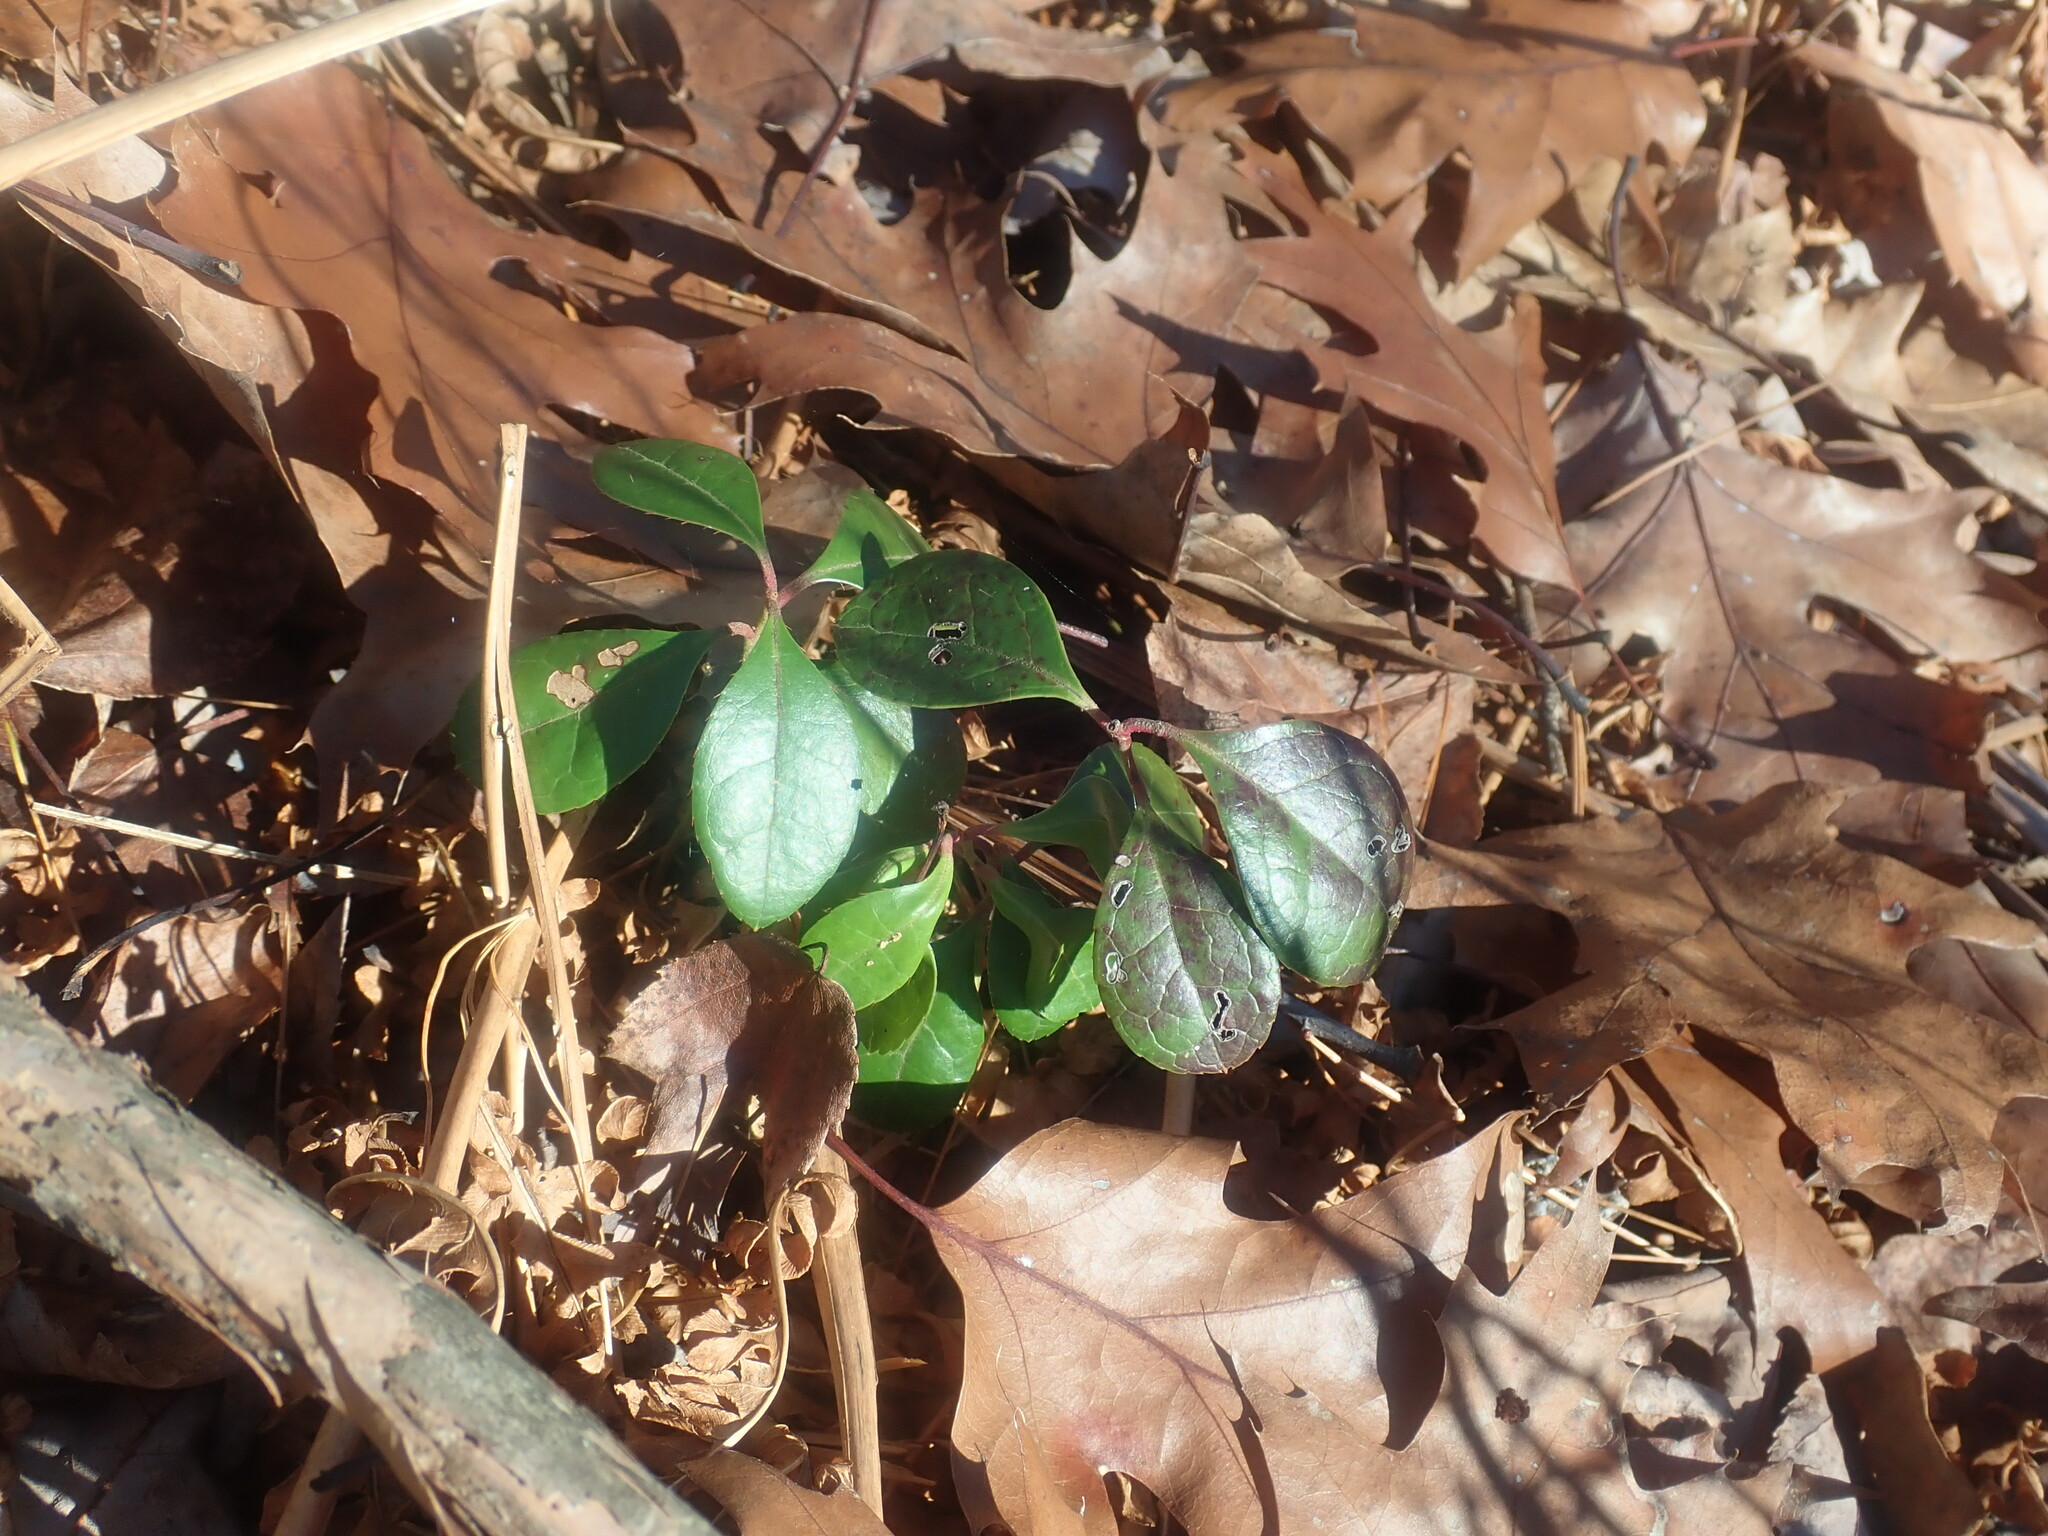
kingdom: Plantae
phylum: Tracheophyta
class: Magnoliopsida
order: Ericales
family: Ericaceae
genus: Gaultheria
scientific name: Gaultheria procumbens
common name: Checkerberry
